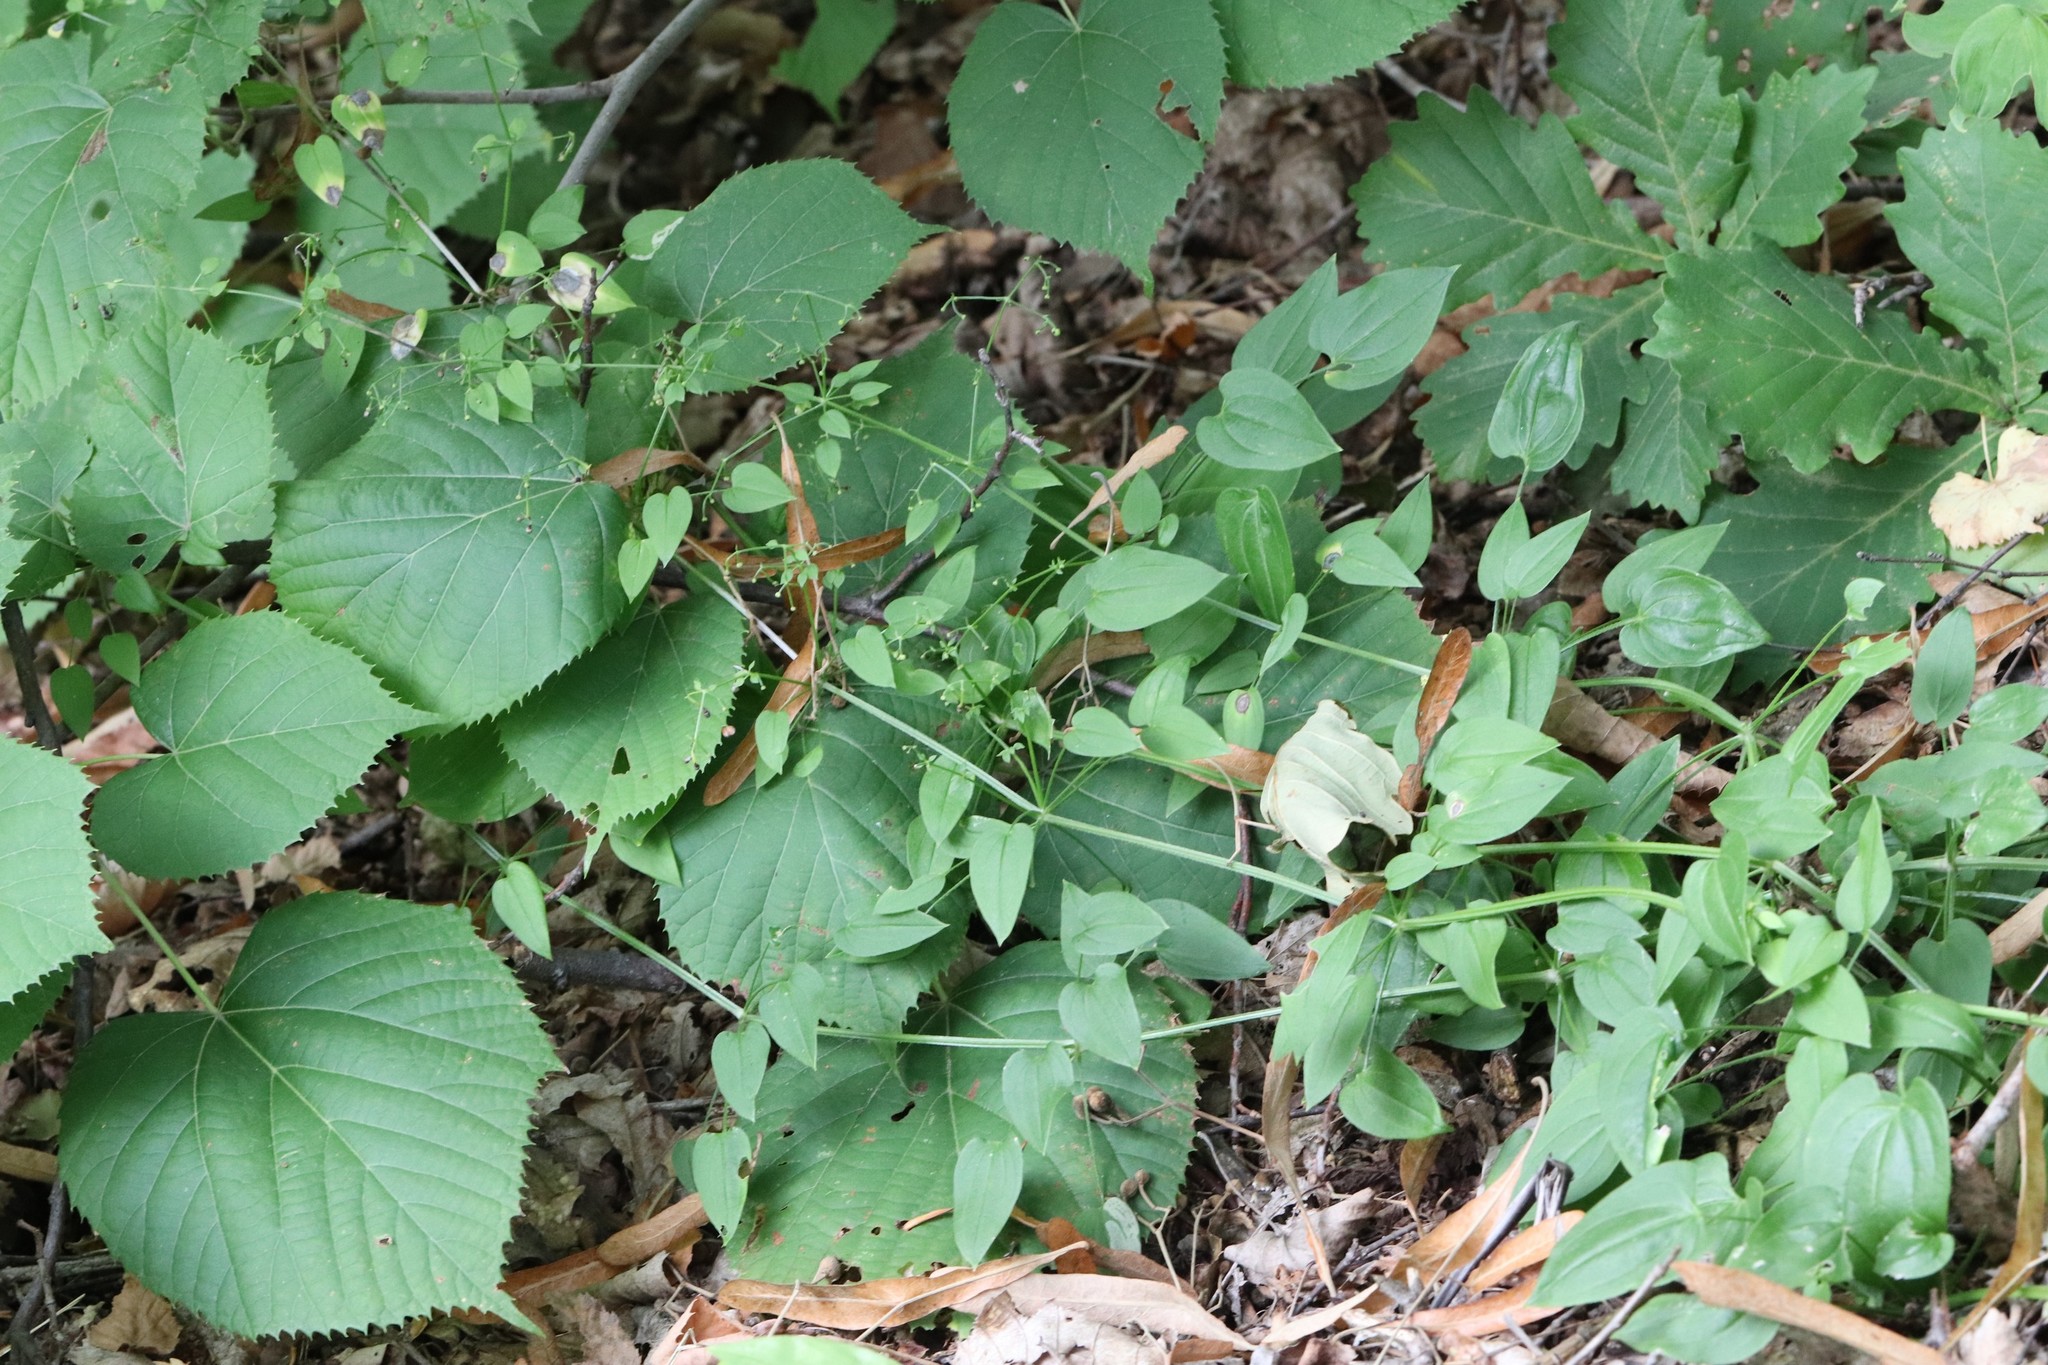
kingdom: Plantae
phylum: Tracheophyta
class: Magnoliopsida
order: Gentianales
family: Rubiaceae
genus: Rubia
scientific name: Rubia cordifolia
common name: Indian madder
